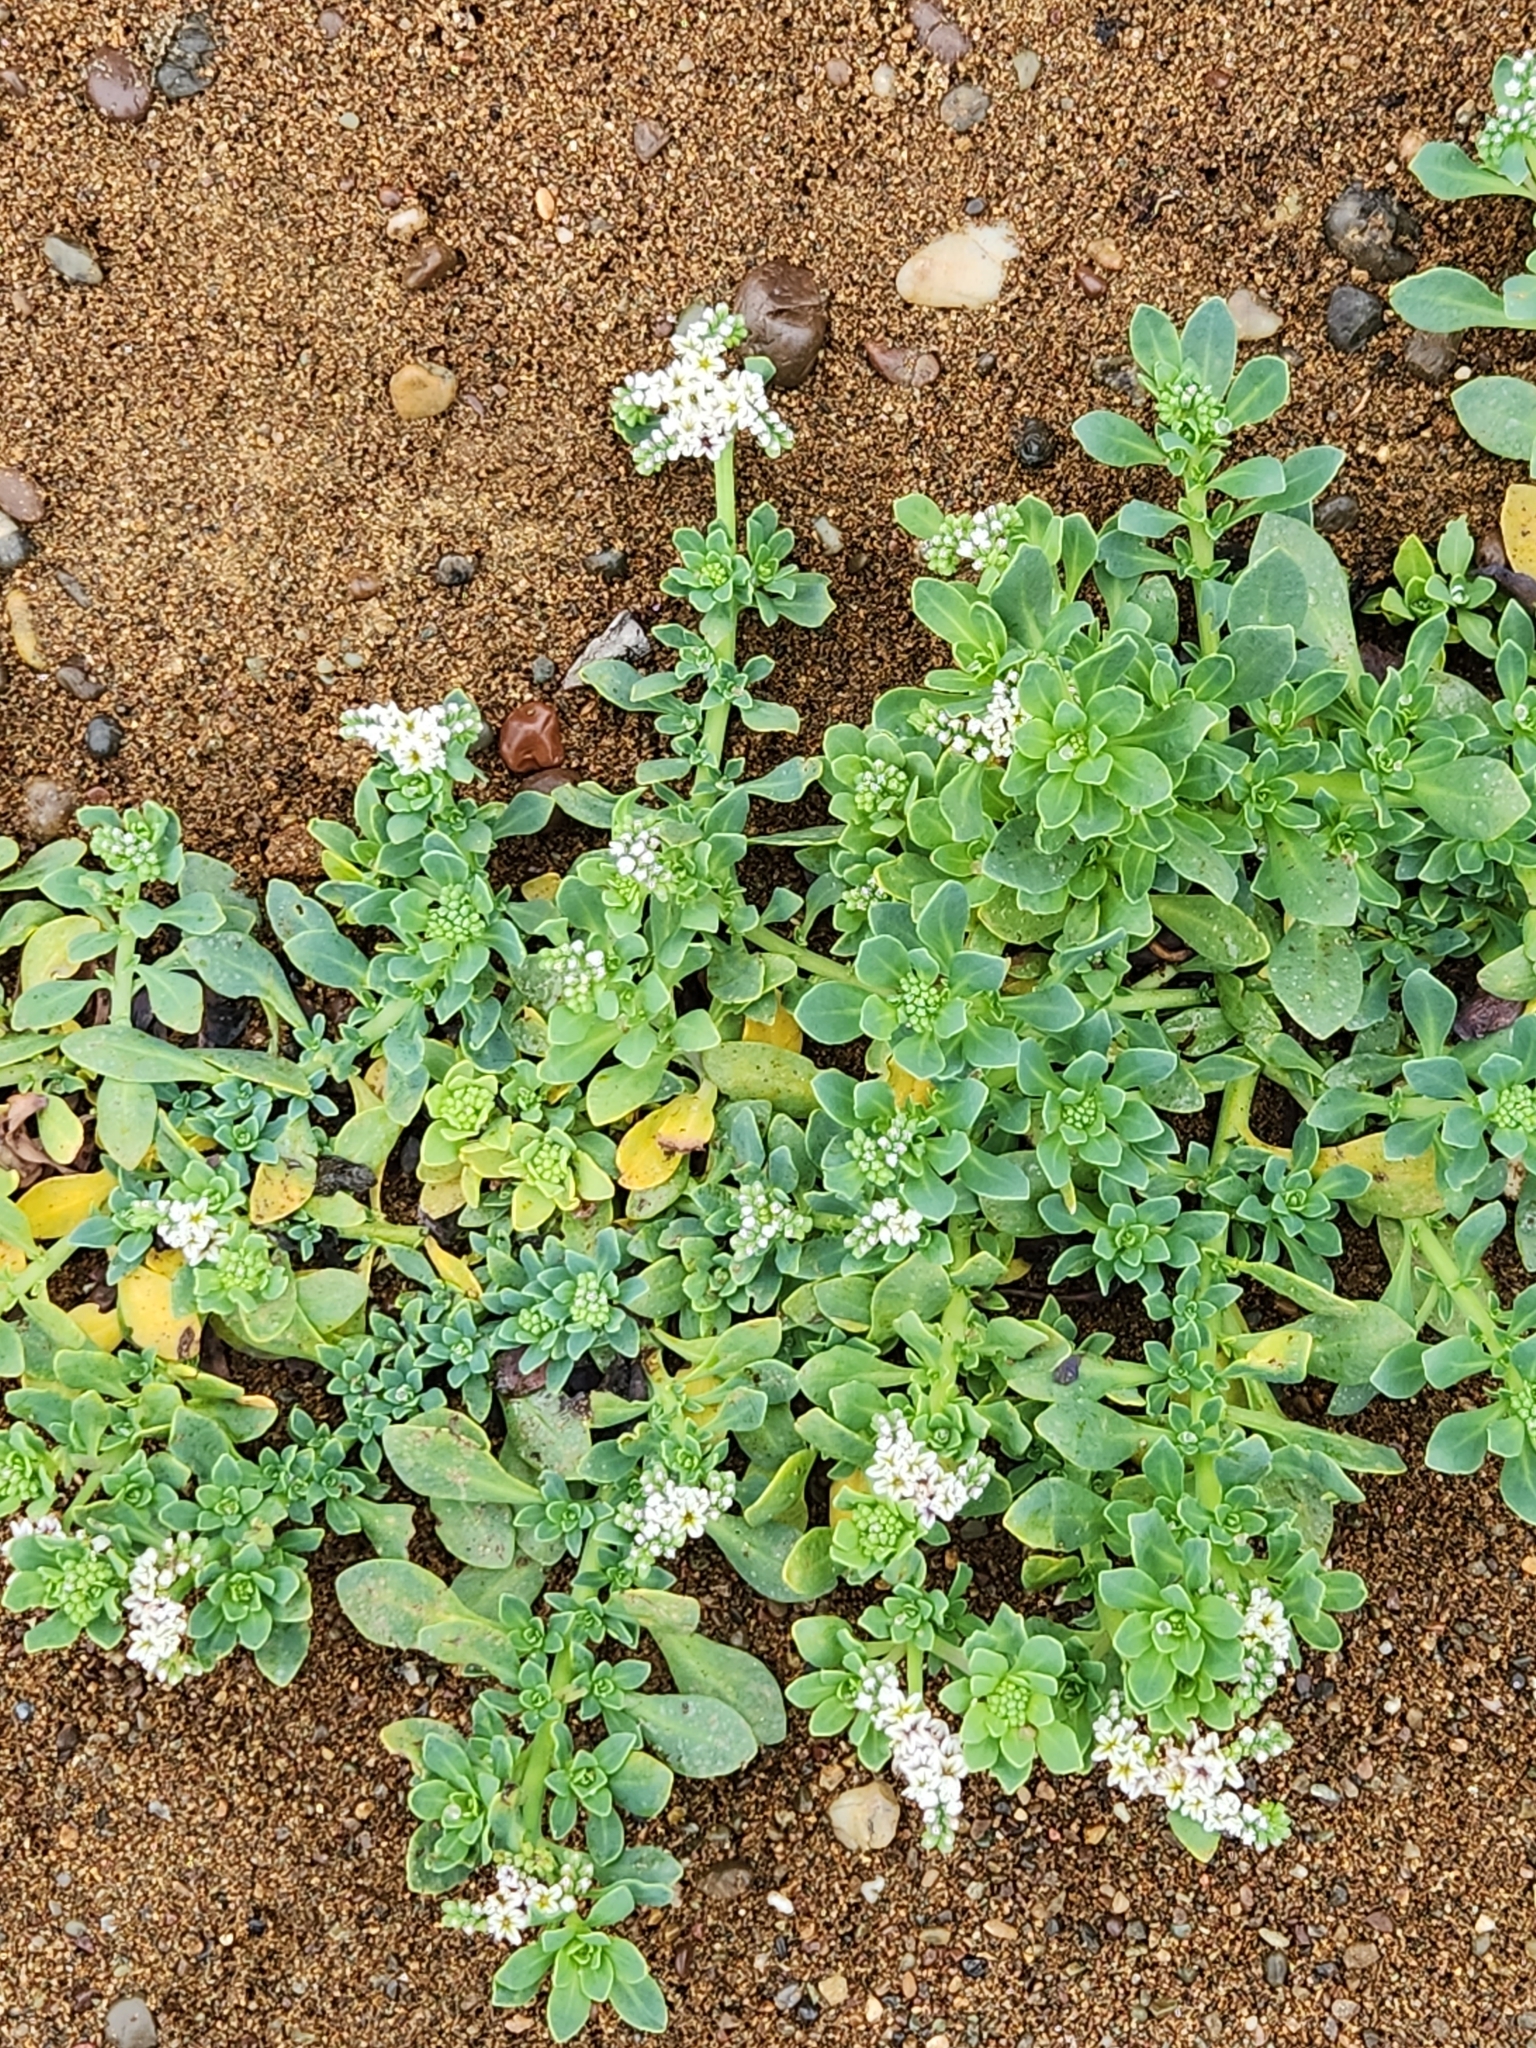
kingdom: Plantae
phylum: Tracheophyta
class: Magnoliopsida
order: Boraginales
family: Heliotropiaceae
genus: Heliotropium
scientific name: Heliotropium curassavicum
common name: Seaside heliotrope
